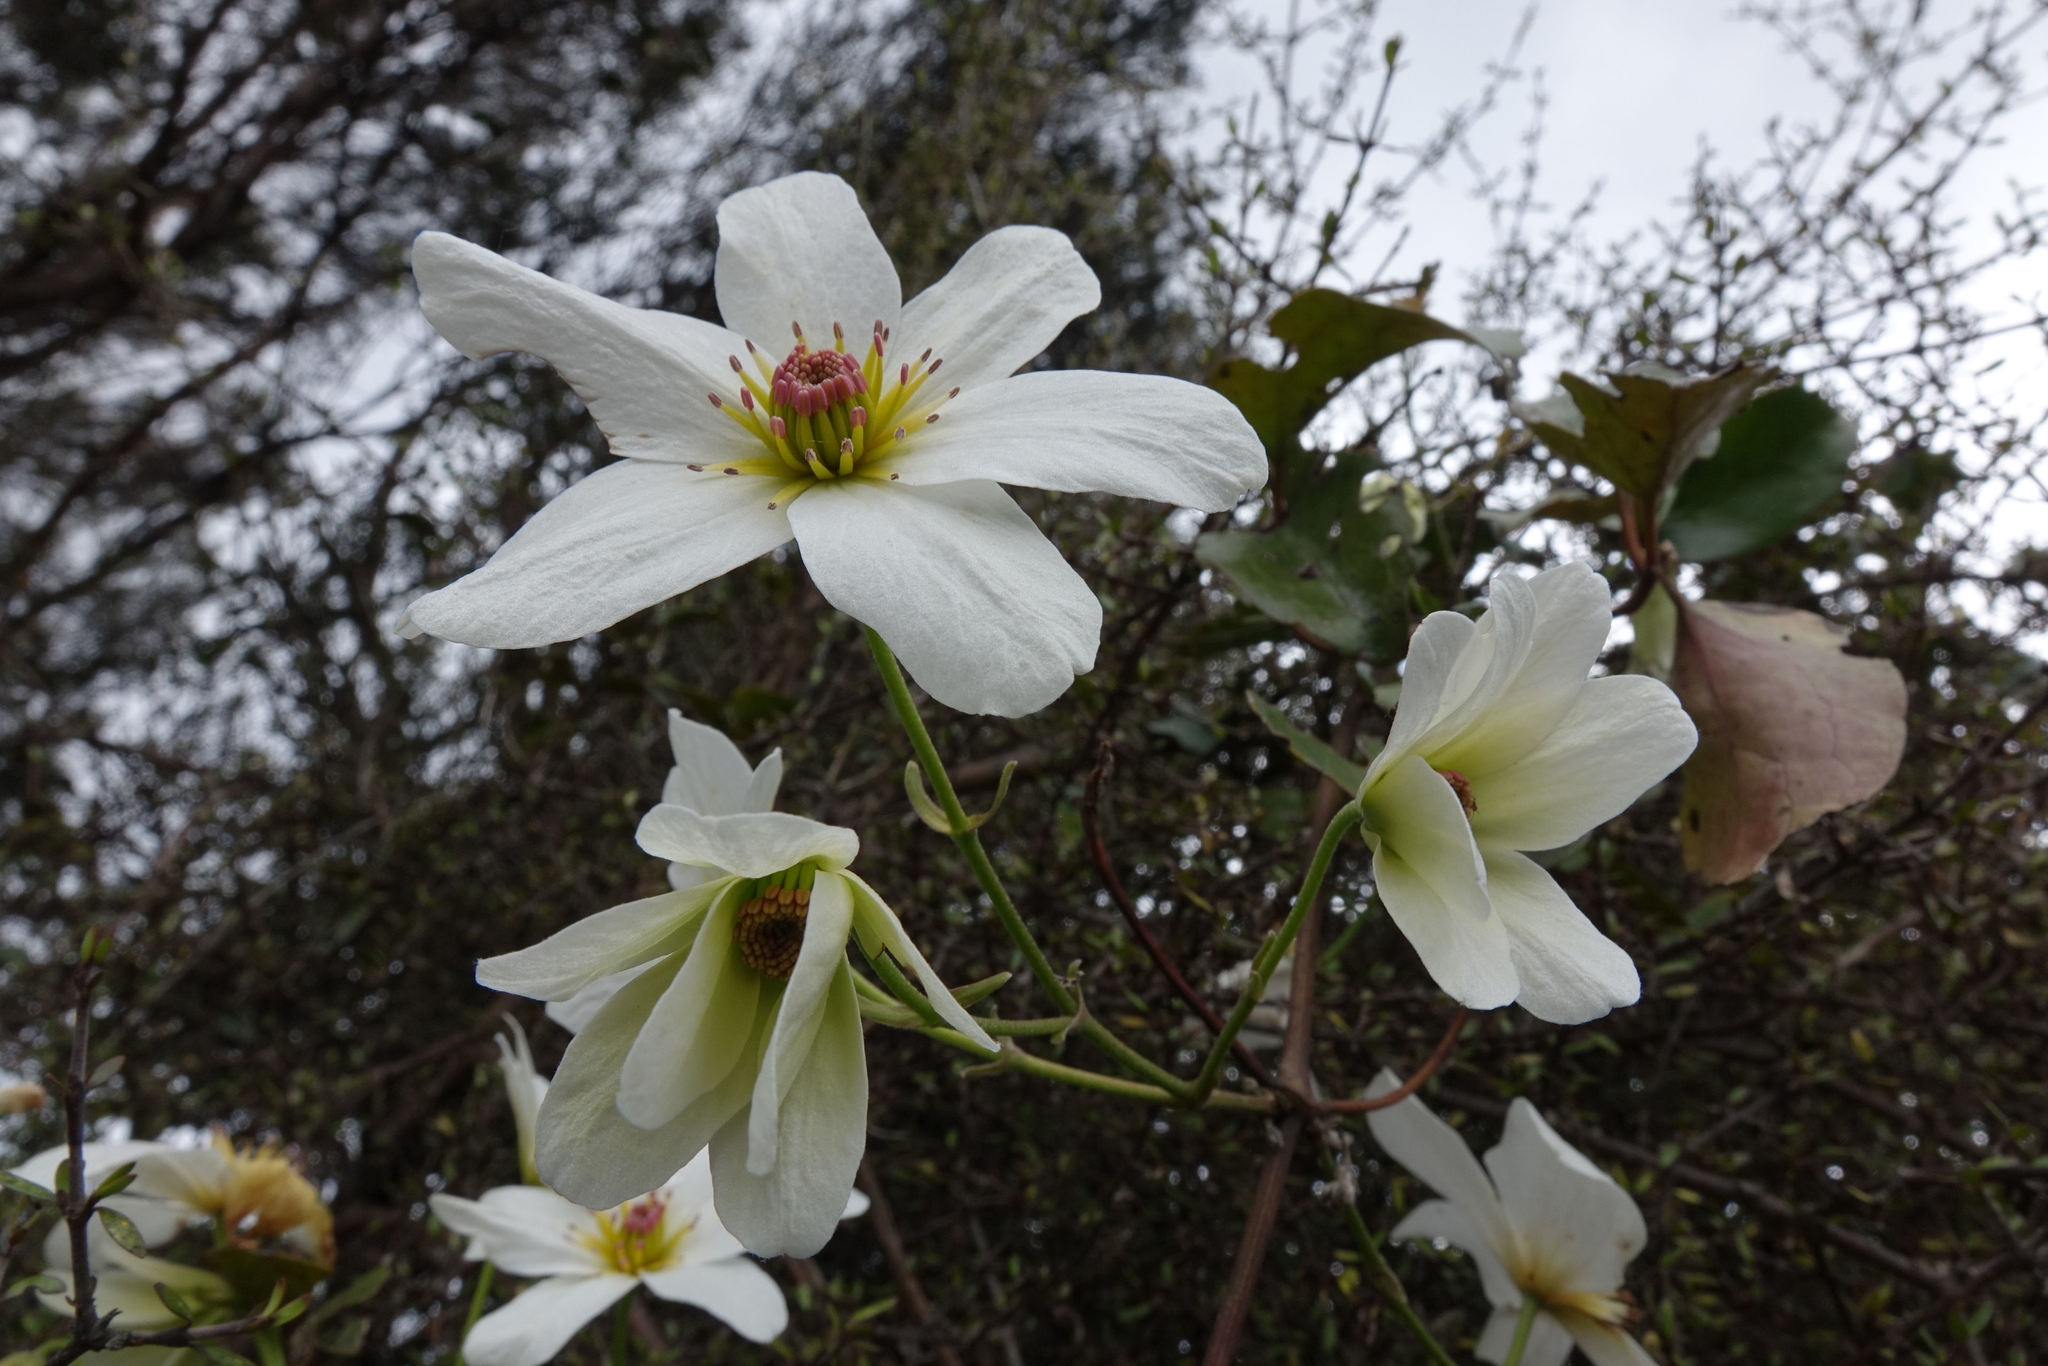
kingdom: Plantae
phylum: Tracheophyta
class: Magnoliopsida
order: Ranunculales
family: Ranunculaceae
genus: Clematis
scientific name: Clematis paniculata
